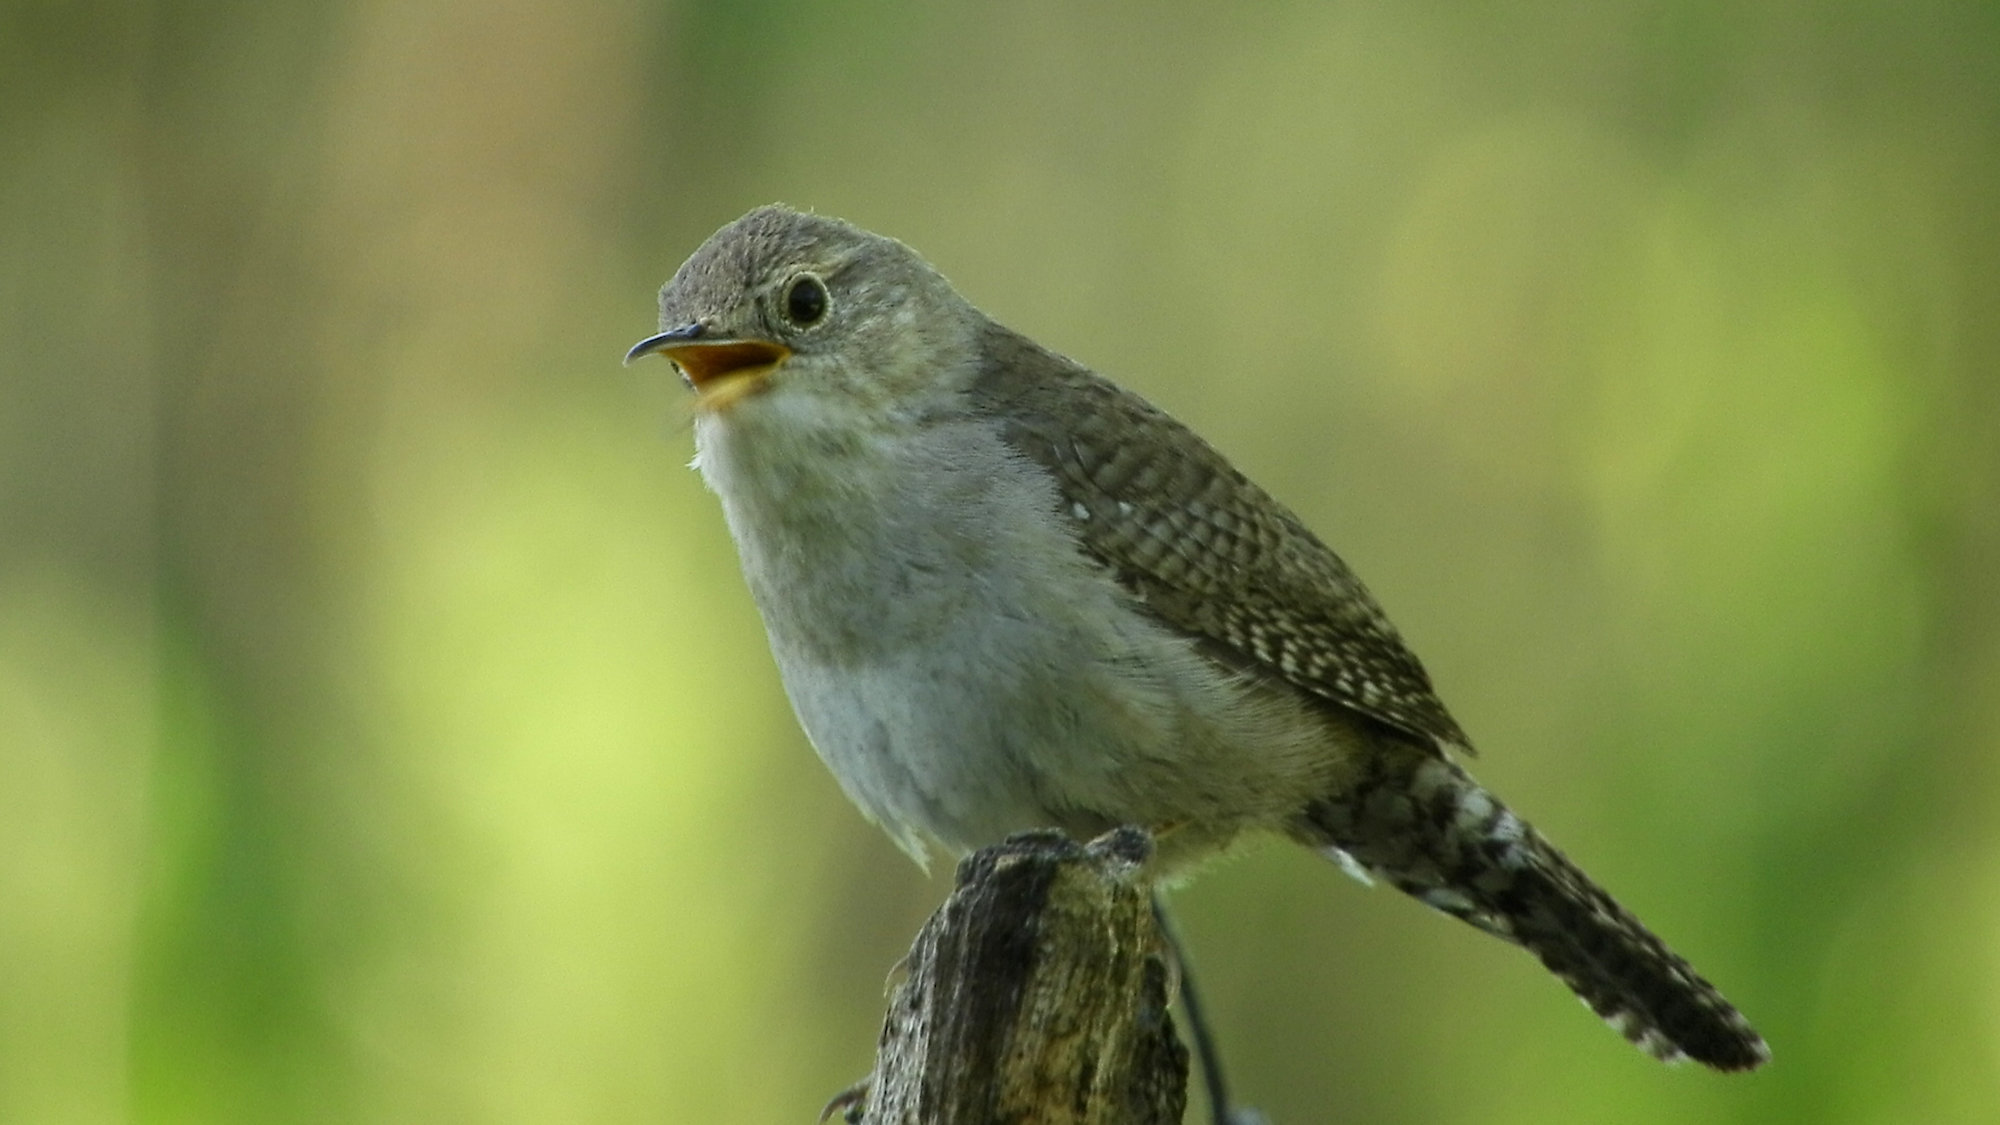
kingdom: Animalia
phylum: Chordata
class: Aves
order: Passeriformes
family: Troglodytidae
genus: Troglodytes
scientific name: Troglodytes aedon
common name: House wren
